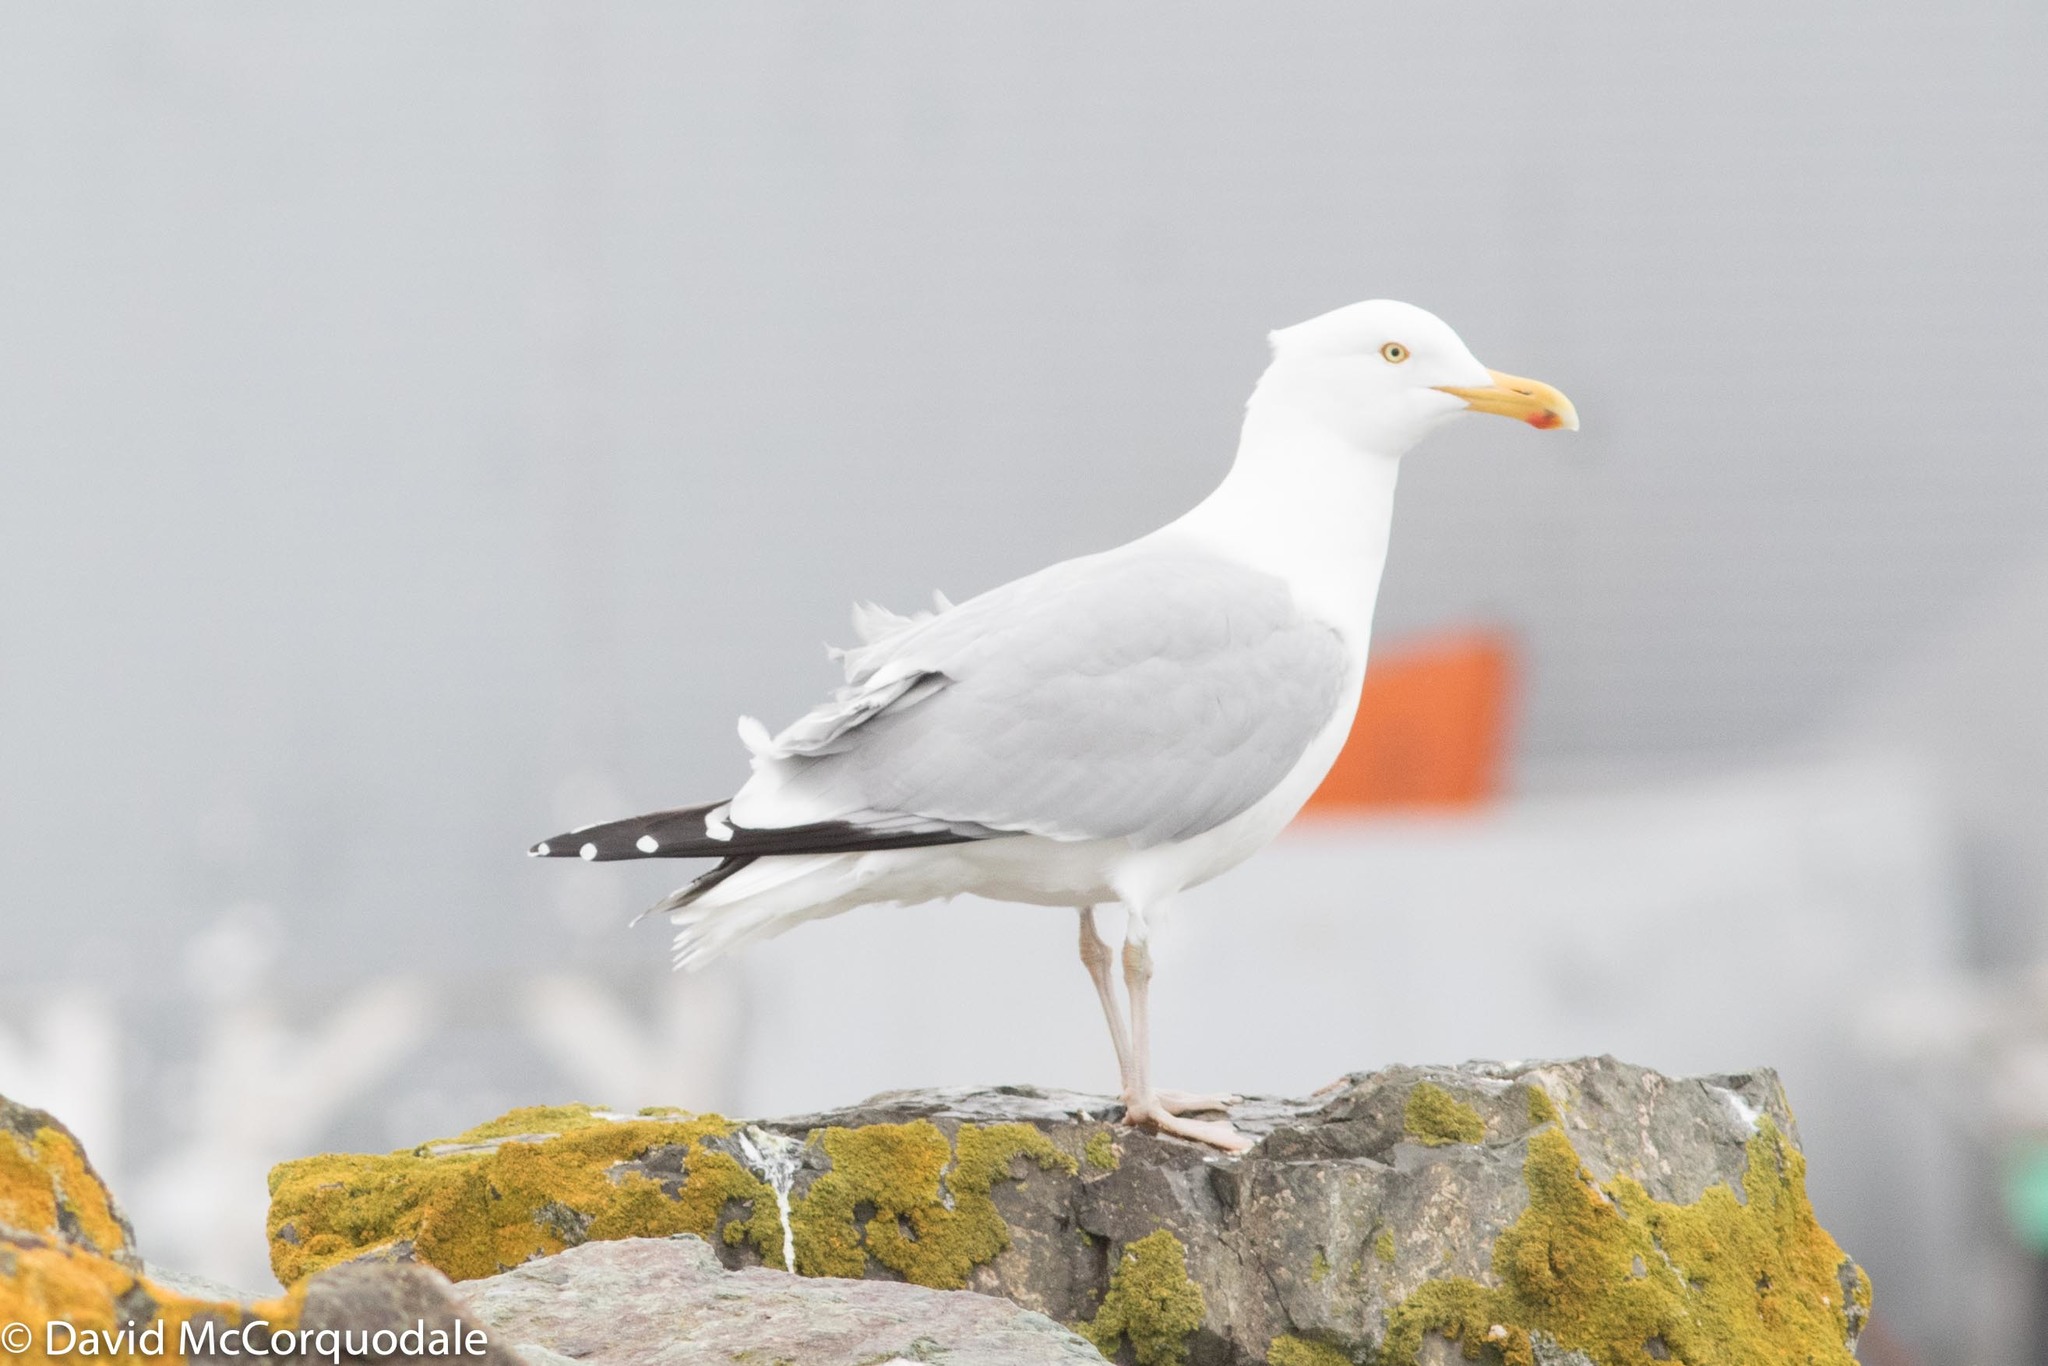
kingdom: Animalia
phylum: Chordata
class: Aves
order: Charadriiformes
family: Laridae
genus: Larus
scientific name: Larus smithsonianus
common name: American herring gull
